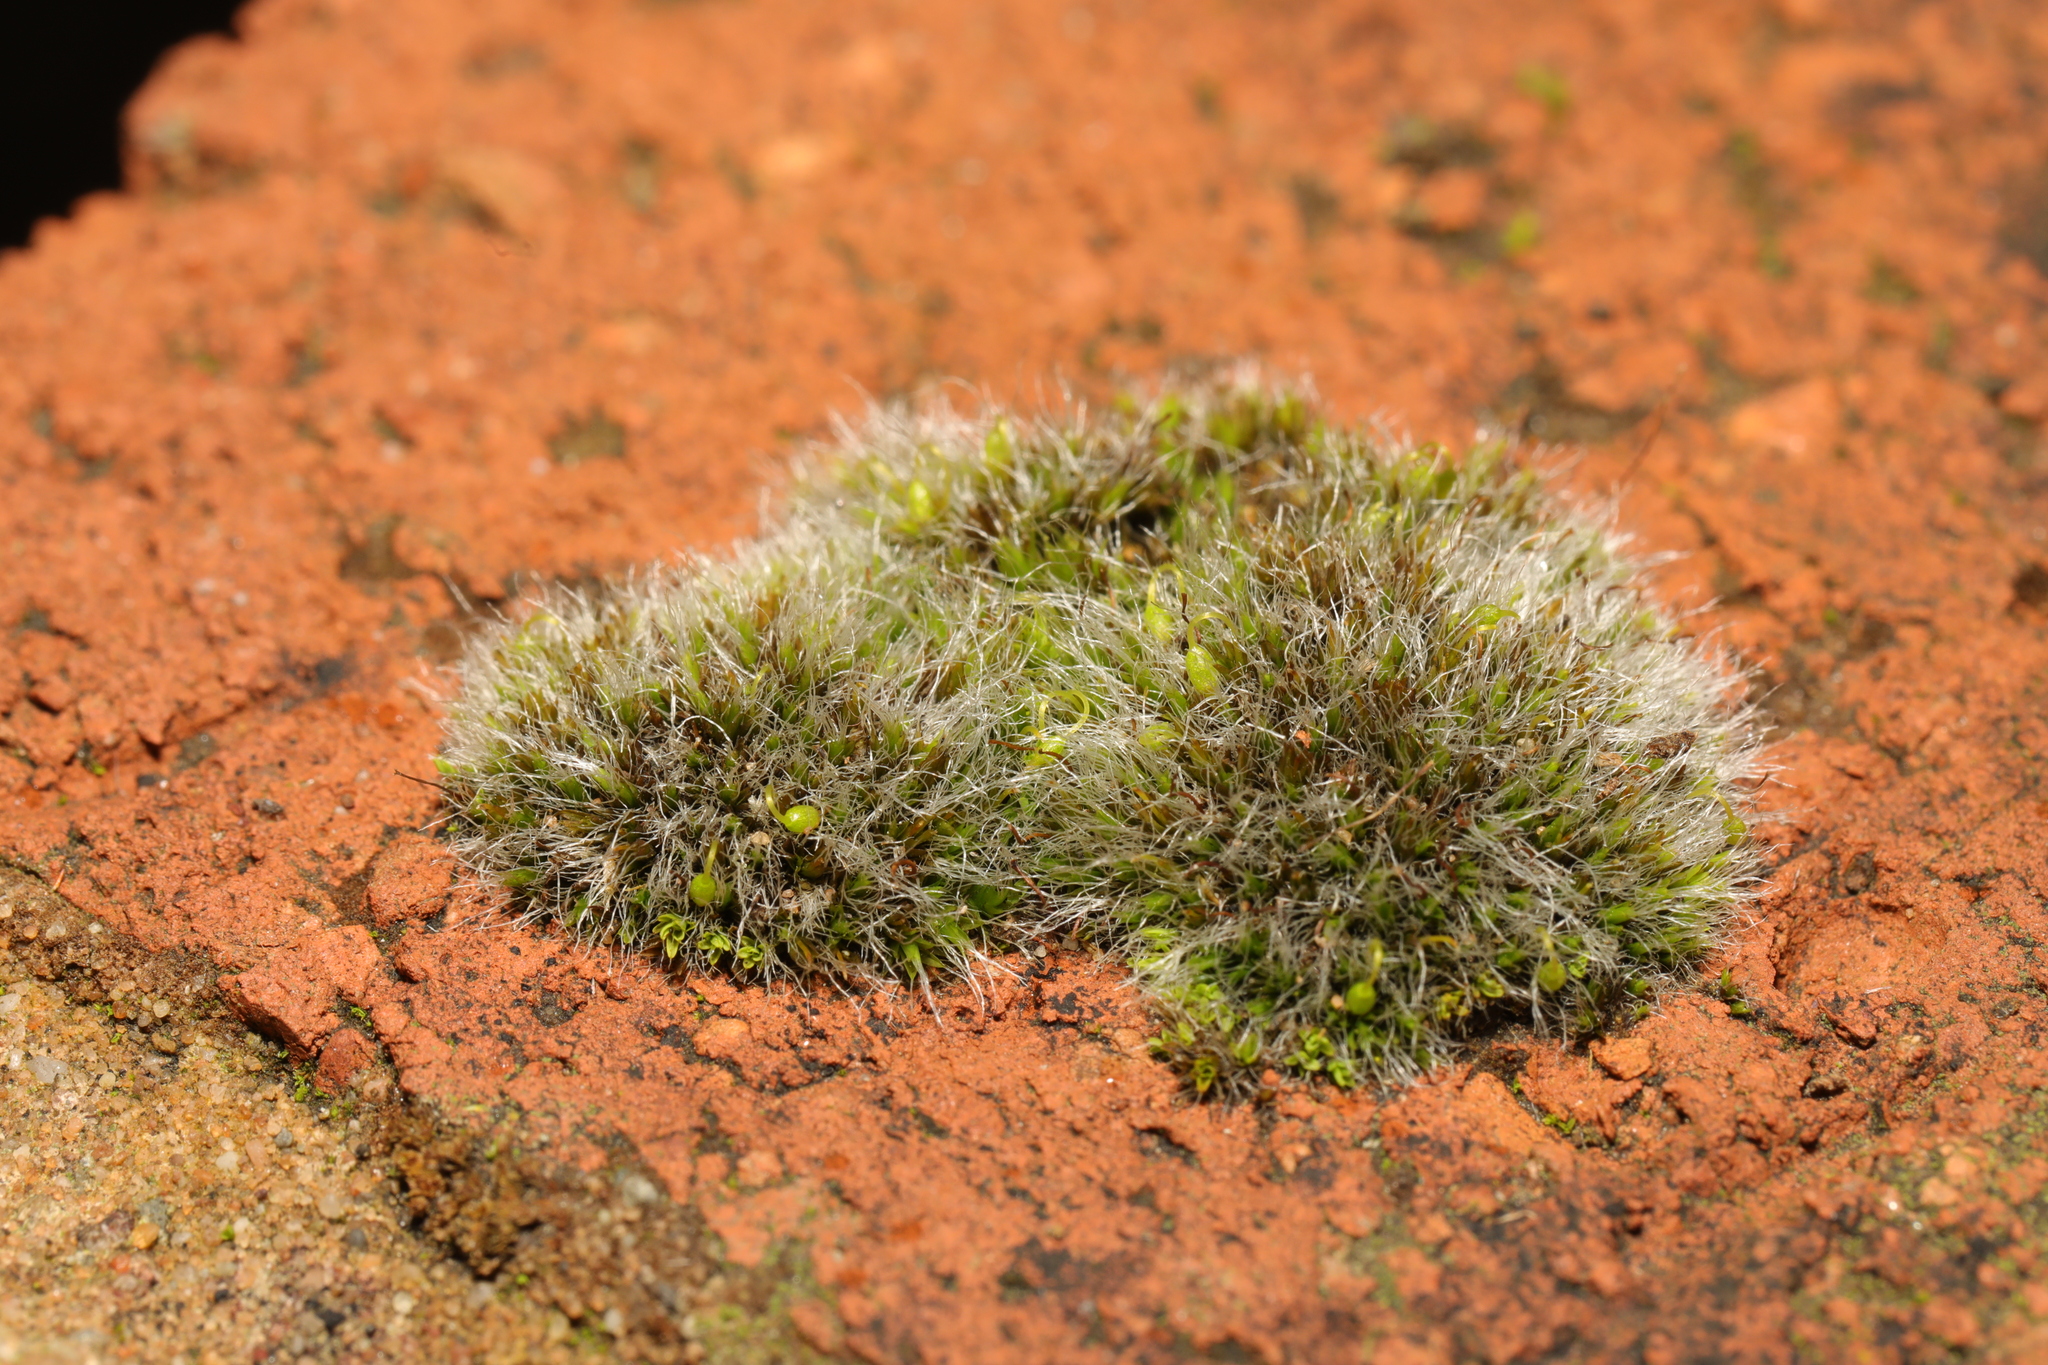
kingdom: Plantae
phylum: Bryophyta
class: Bryopsida
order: Grimmiales
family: Grimmiaceae
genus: Grimmia
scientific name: Grimmia pulvinata
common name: Grey-cushioned grimmia
